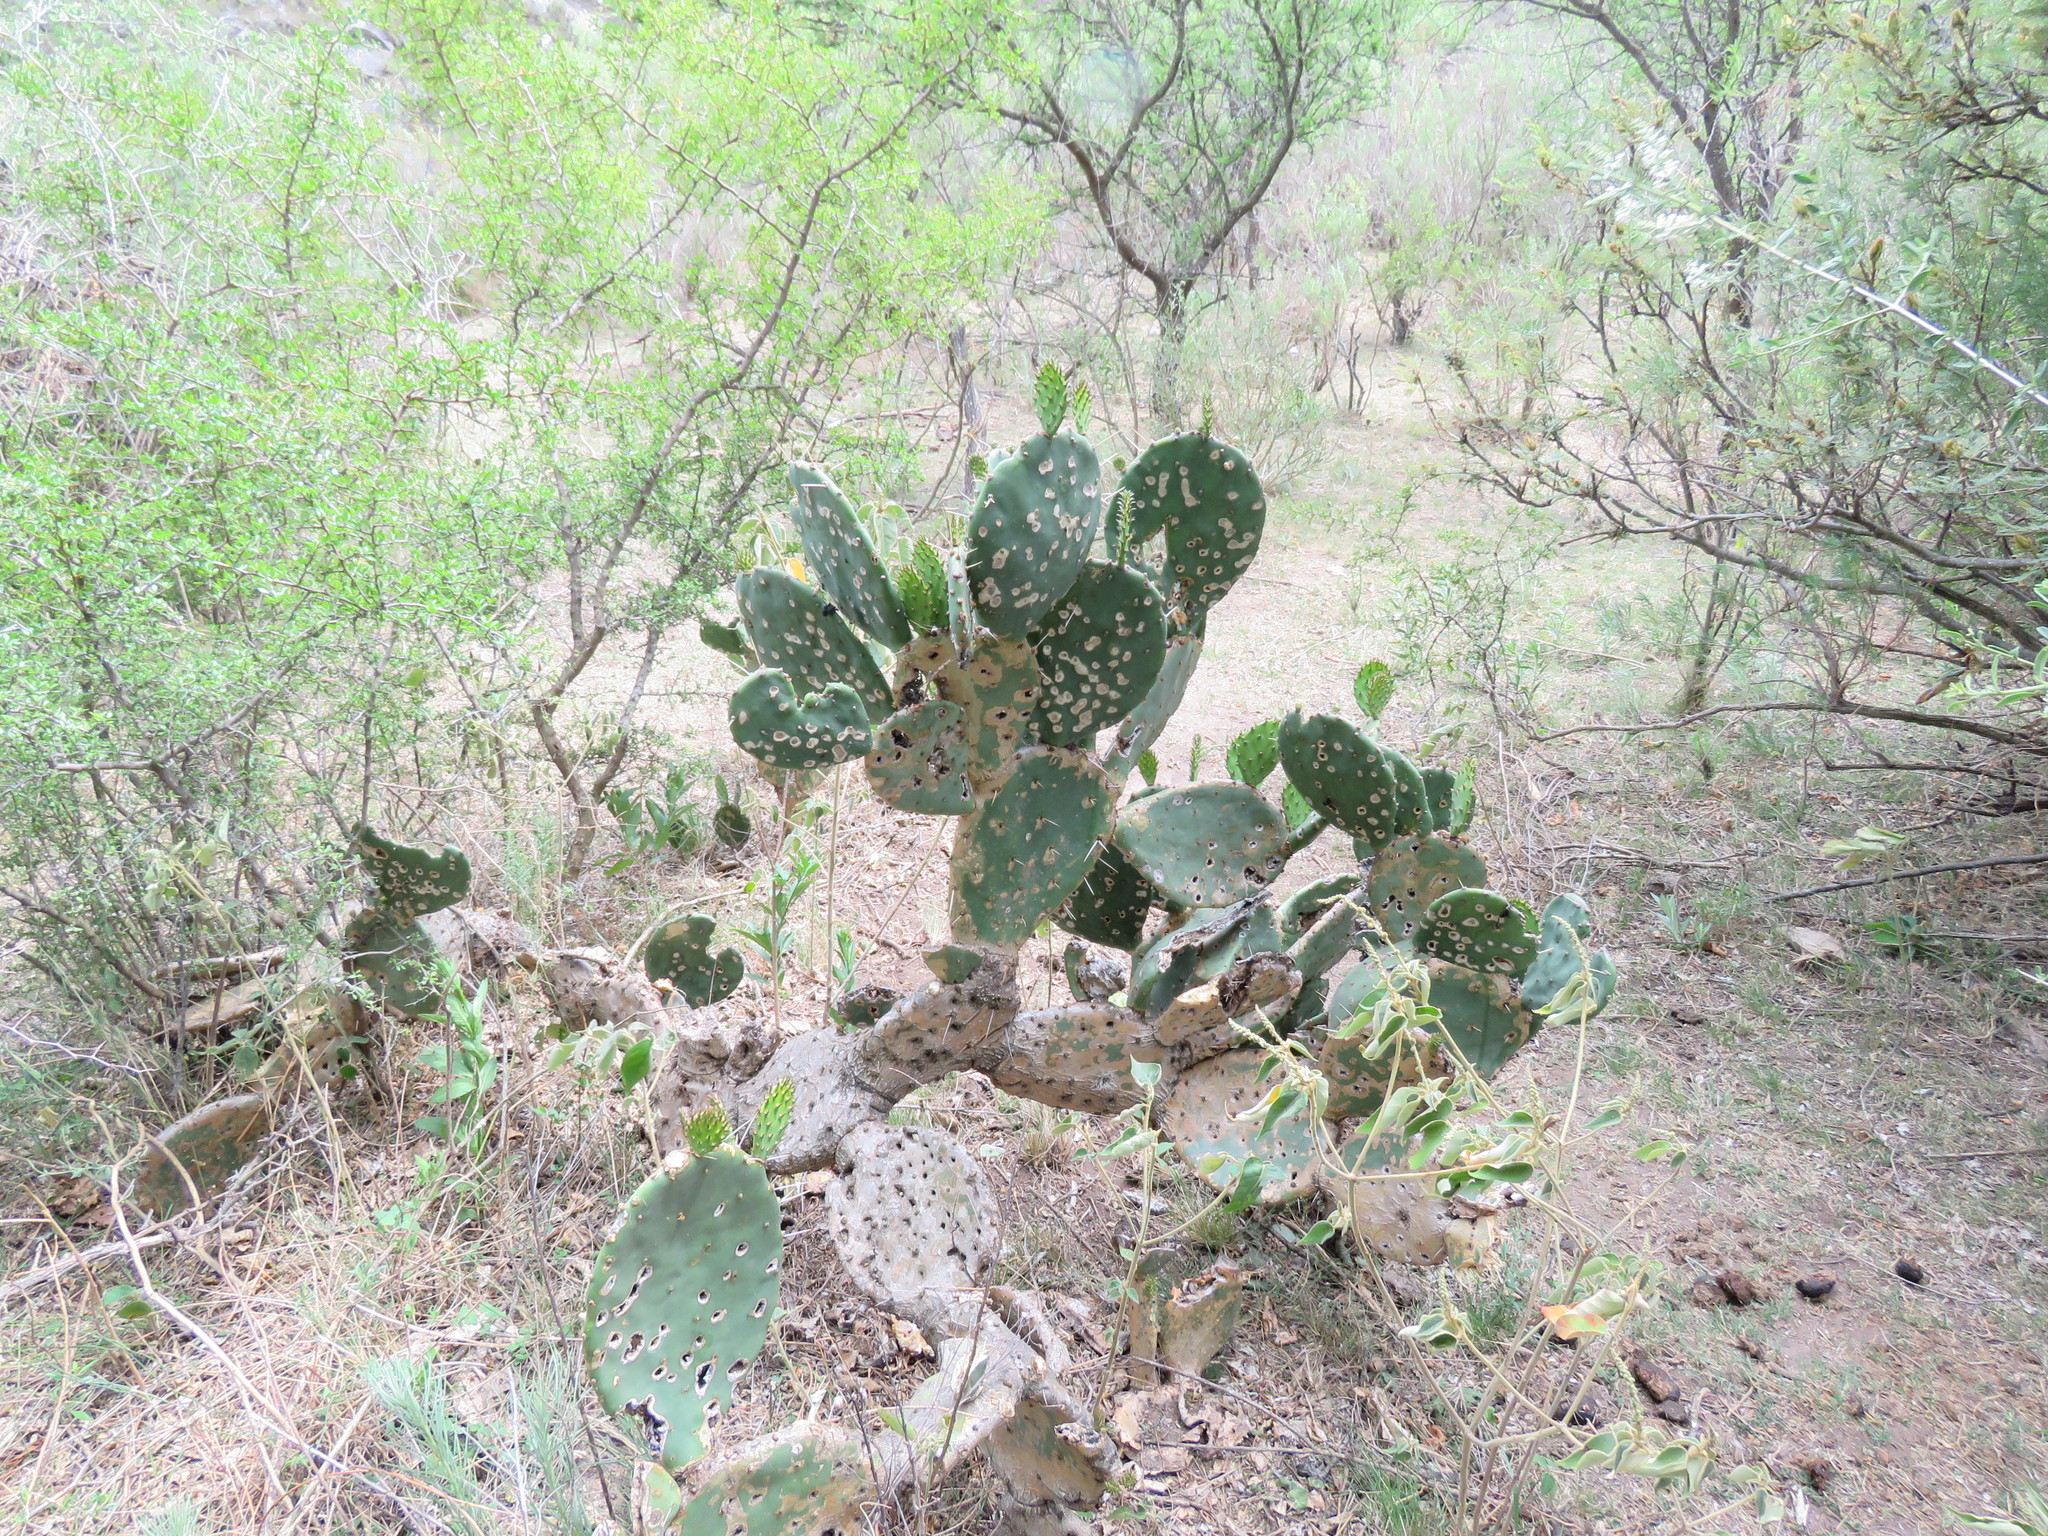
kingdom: Plantae
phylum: Tracheophyta
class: Magnoliopsida
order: Caryophyllales
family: Cactaceae
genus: Opuntia
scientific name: Opuntia megapotamica
